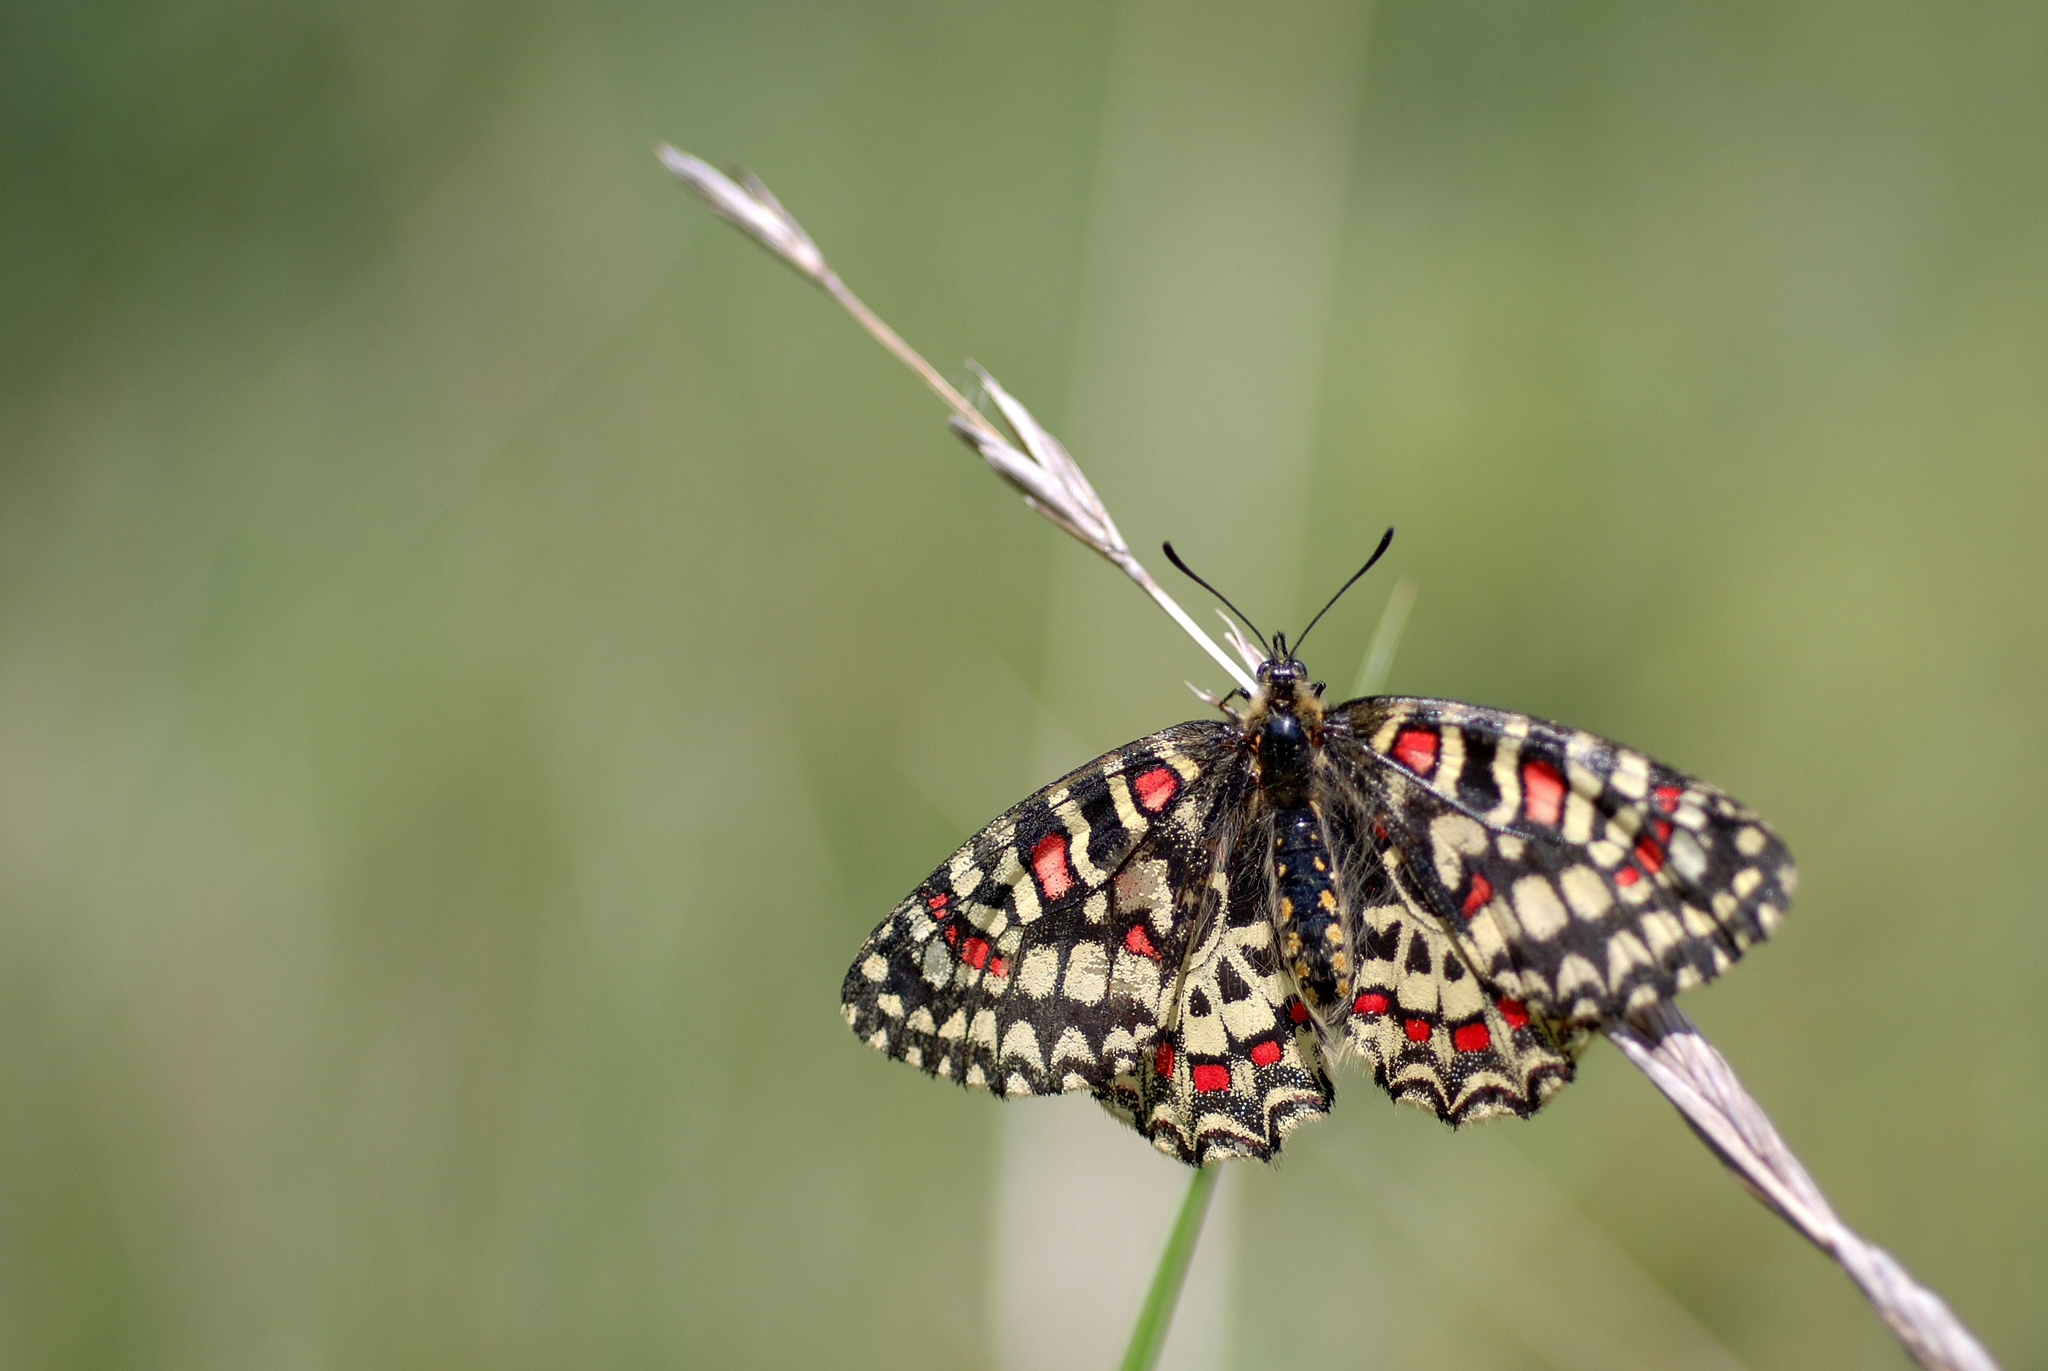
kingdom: Animalia
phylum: Arthropoda
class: Insecta
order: Lepidoptera
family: Papilionidae
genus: Zerynthia
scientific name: Zerynthia rumina
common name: Spanish festoon
